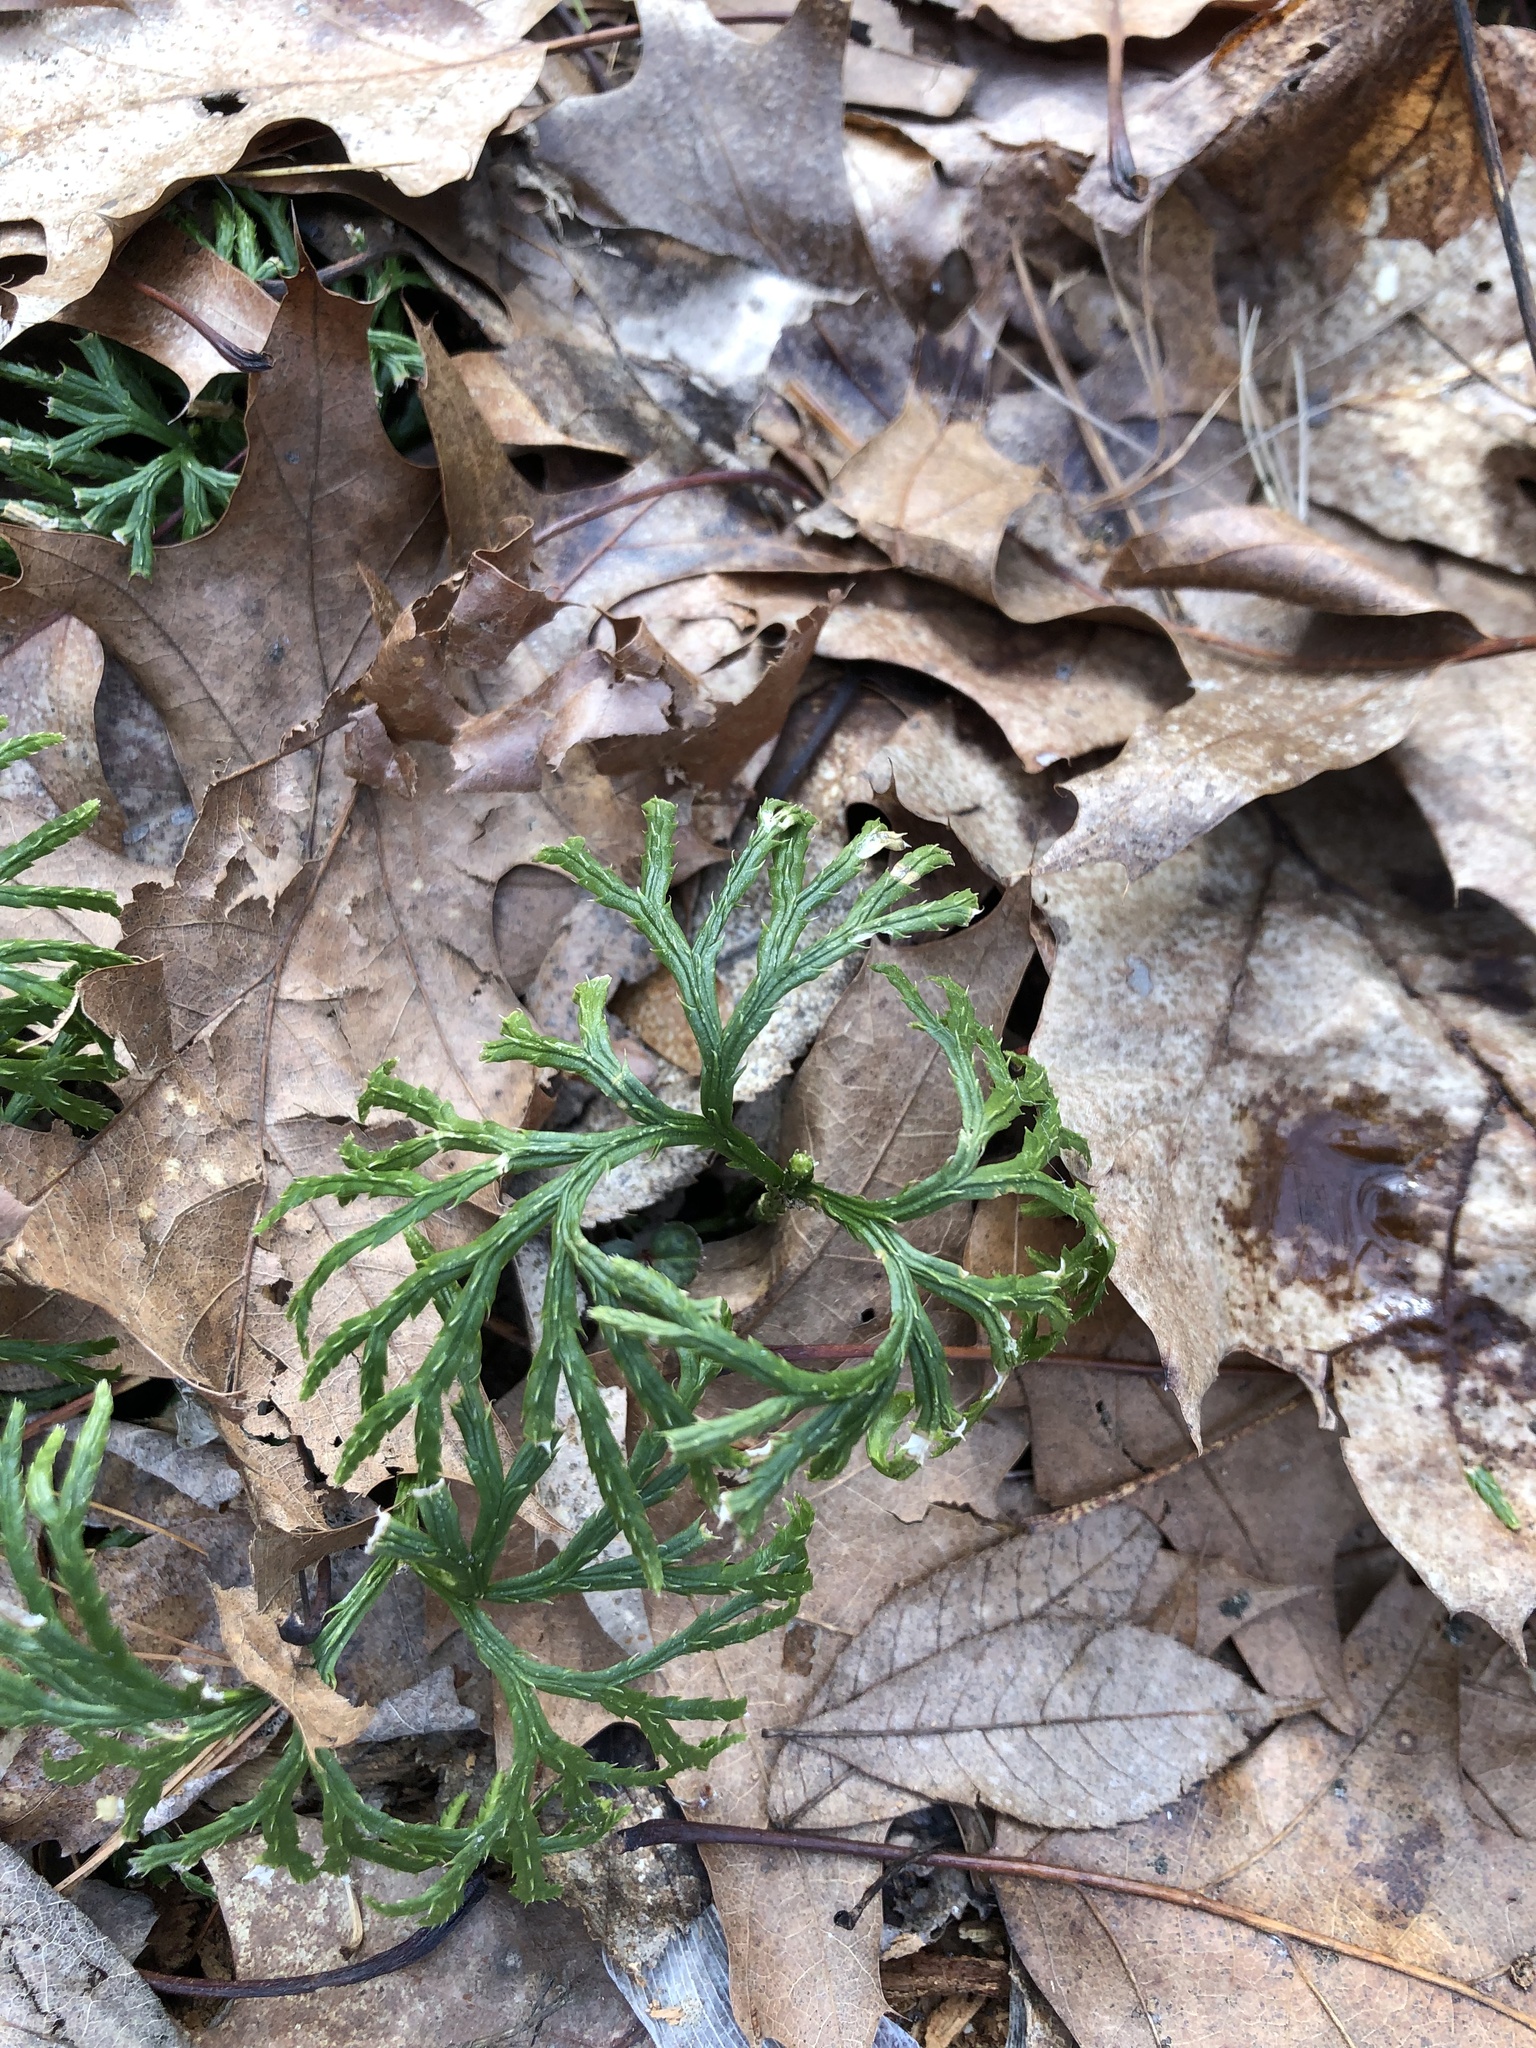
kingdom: Plantae
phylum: Tracheophyta
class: Lycopodiopsida
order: Lycopodiales
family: Lycopodiaceae
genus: Diphasiastrum
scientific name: Diphasiastrum digitatum
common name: Southern running-pine
